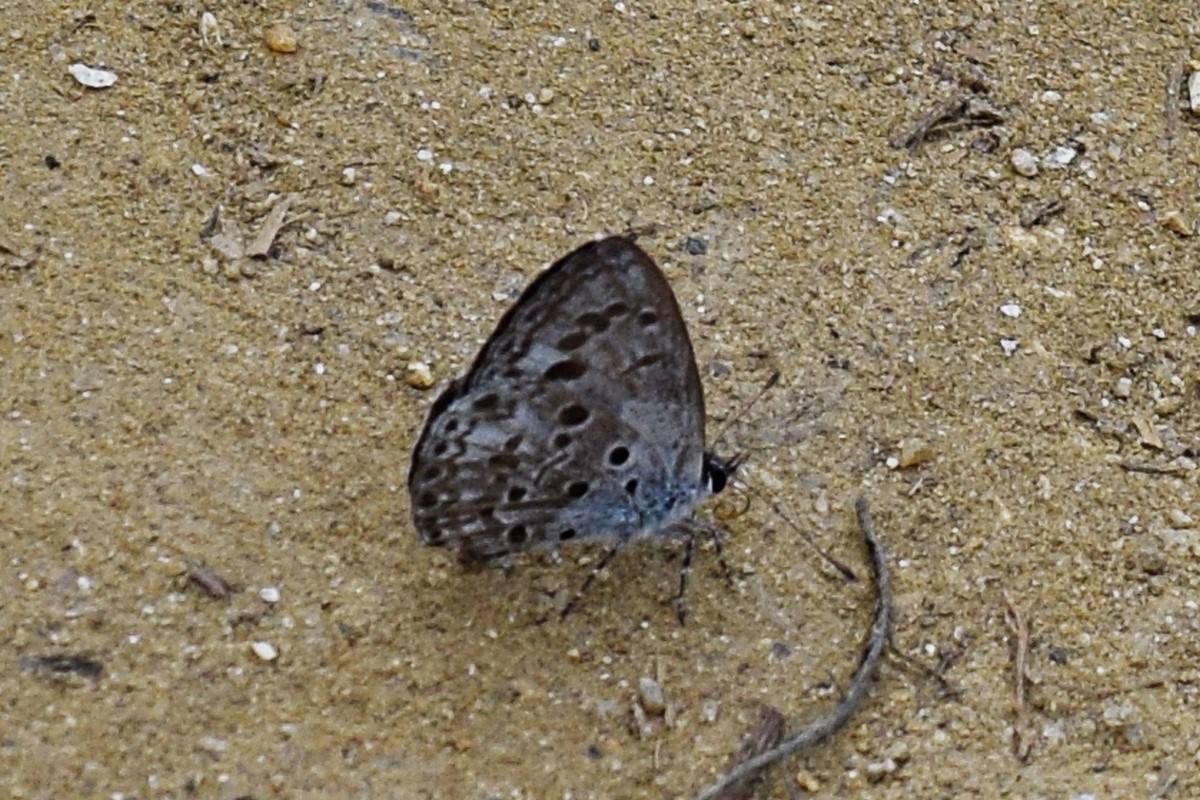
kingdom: Animalia
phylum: Arthropoda
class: Insecta
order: Lepidoptera
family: Lycaenidae
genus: Acytolepis
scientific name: Acytolepis puspa
